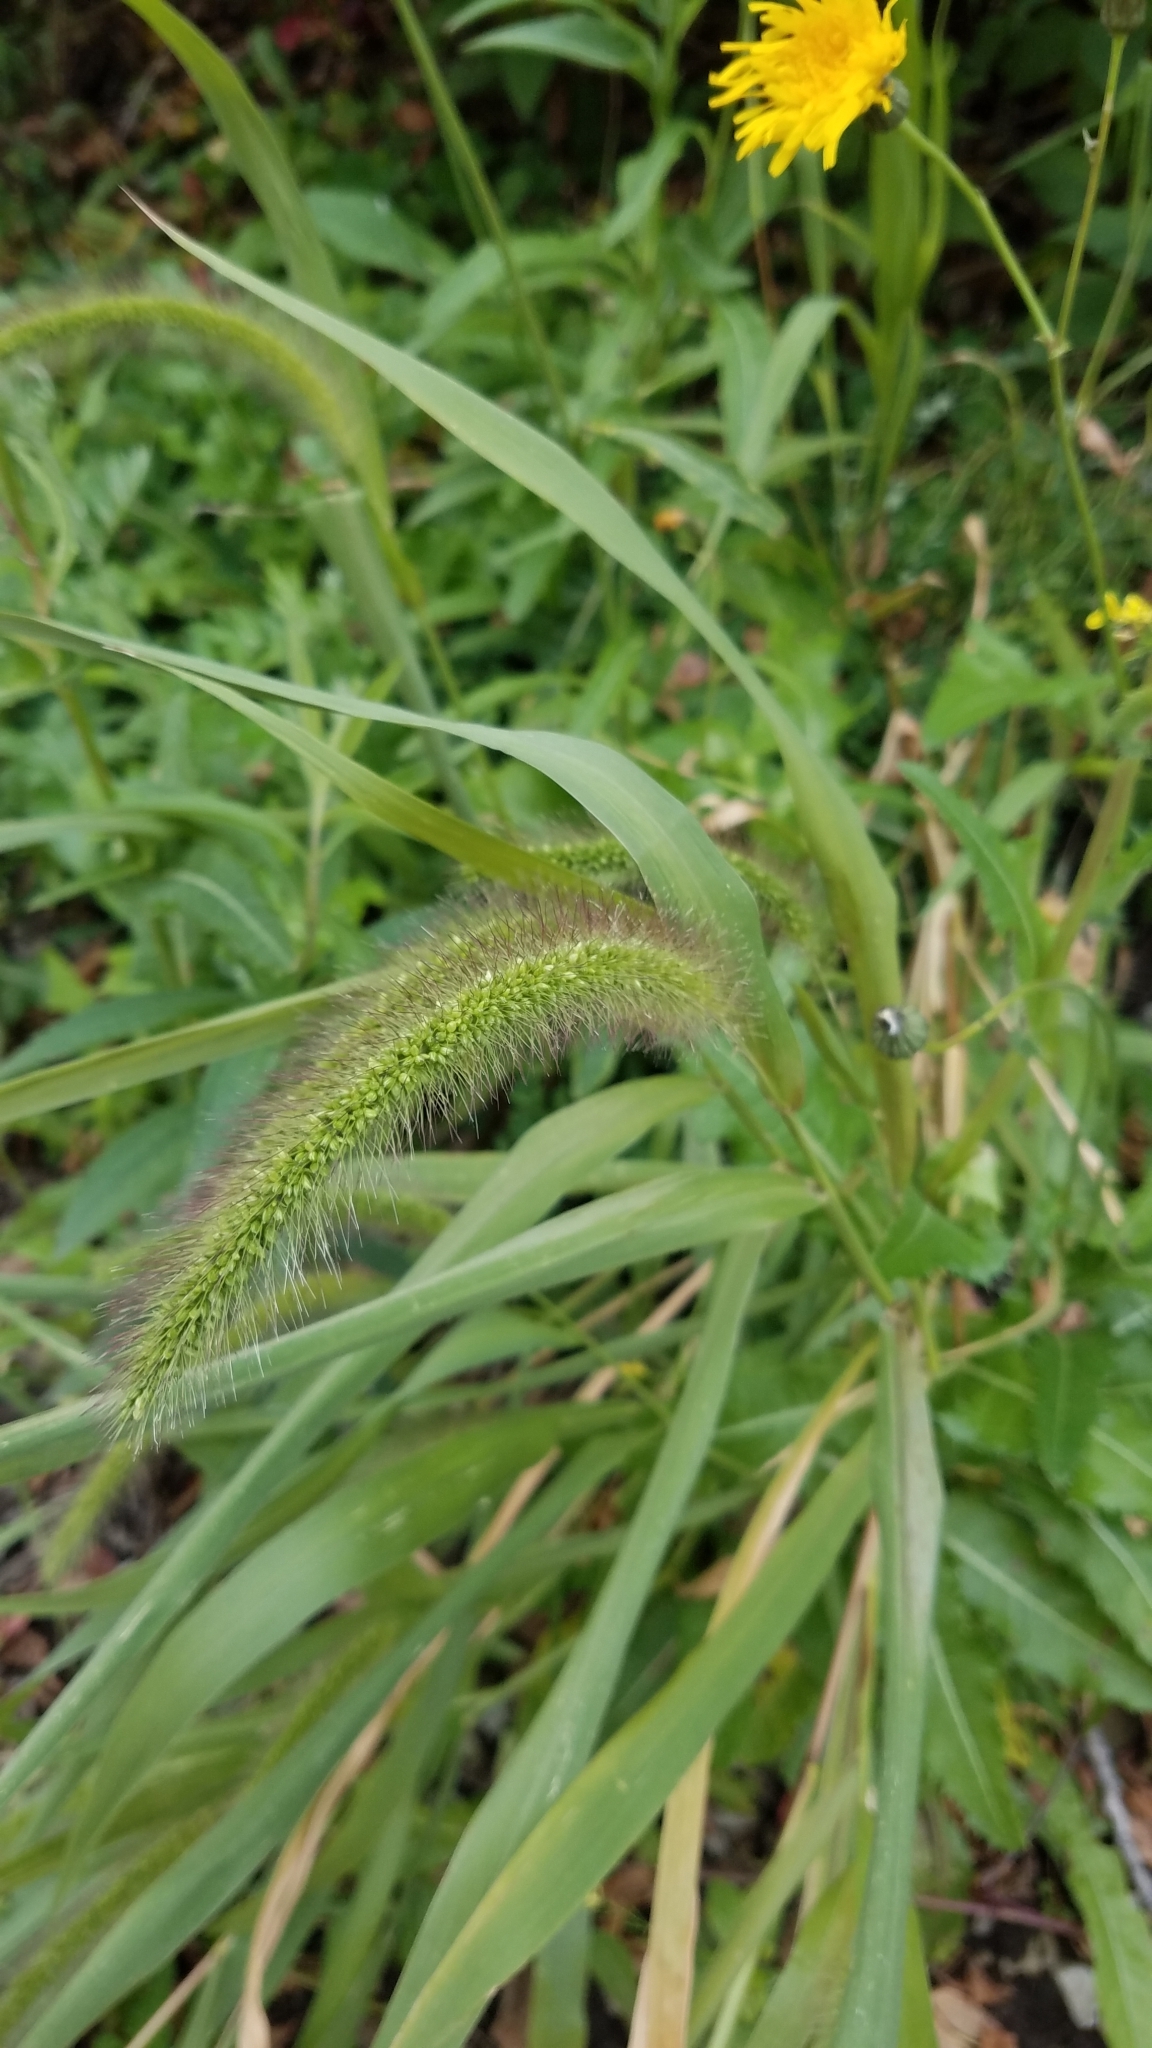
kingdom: Plantae
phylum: Tracheophyta
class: Liliopsida
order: Poales
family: Poaceae
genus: Setaria
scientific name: Setaria faberi
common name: Nodding bristle-grass
